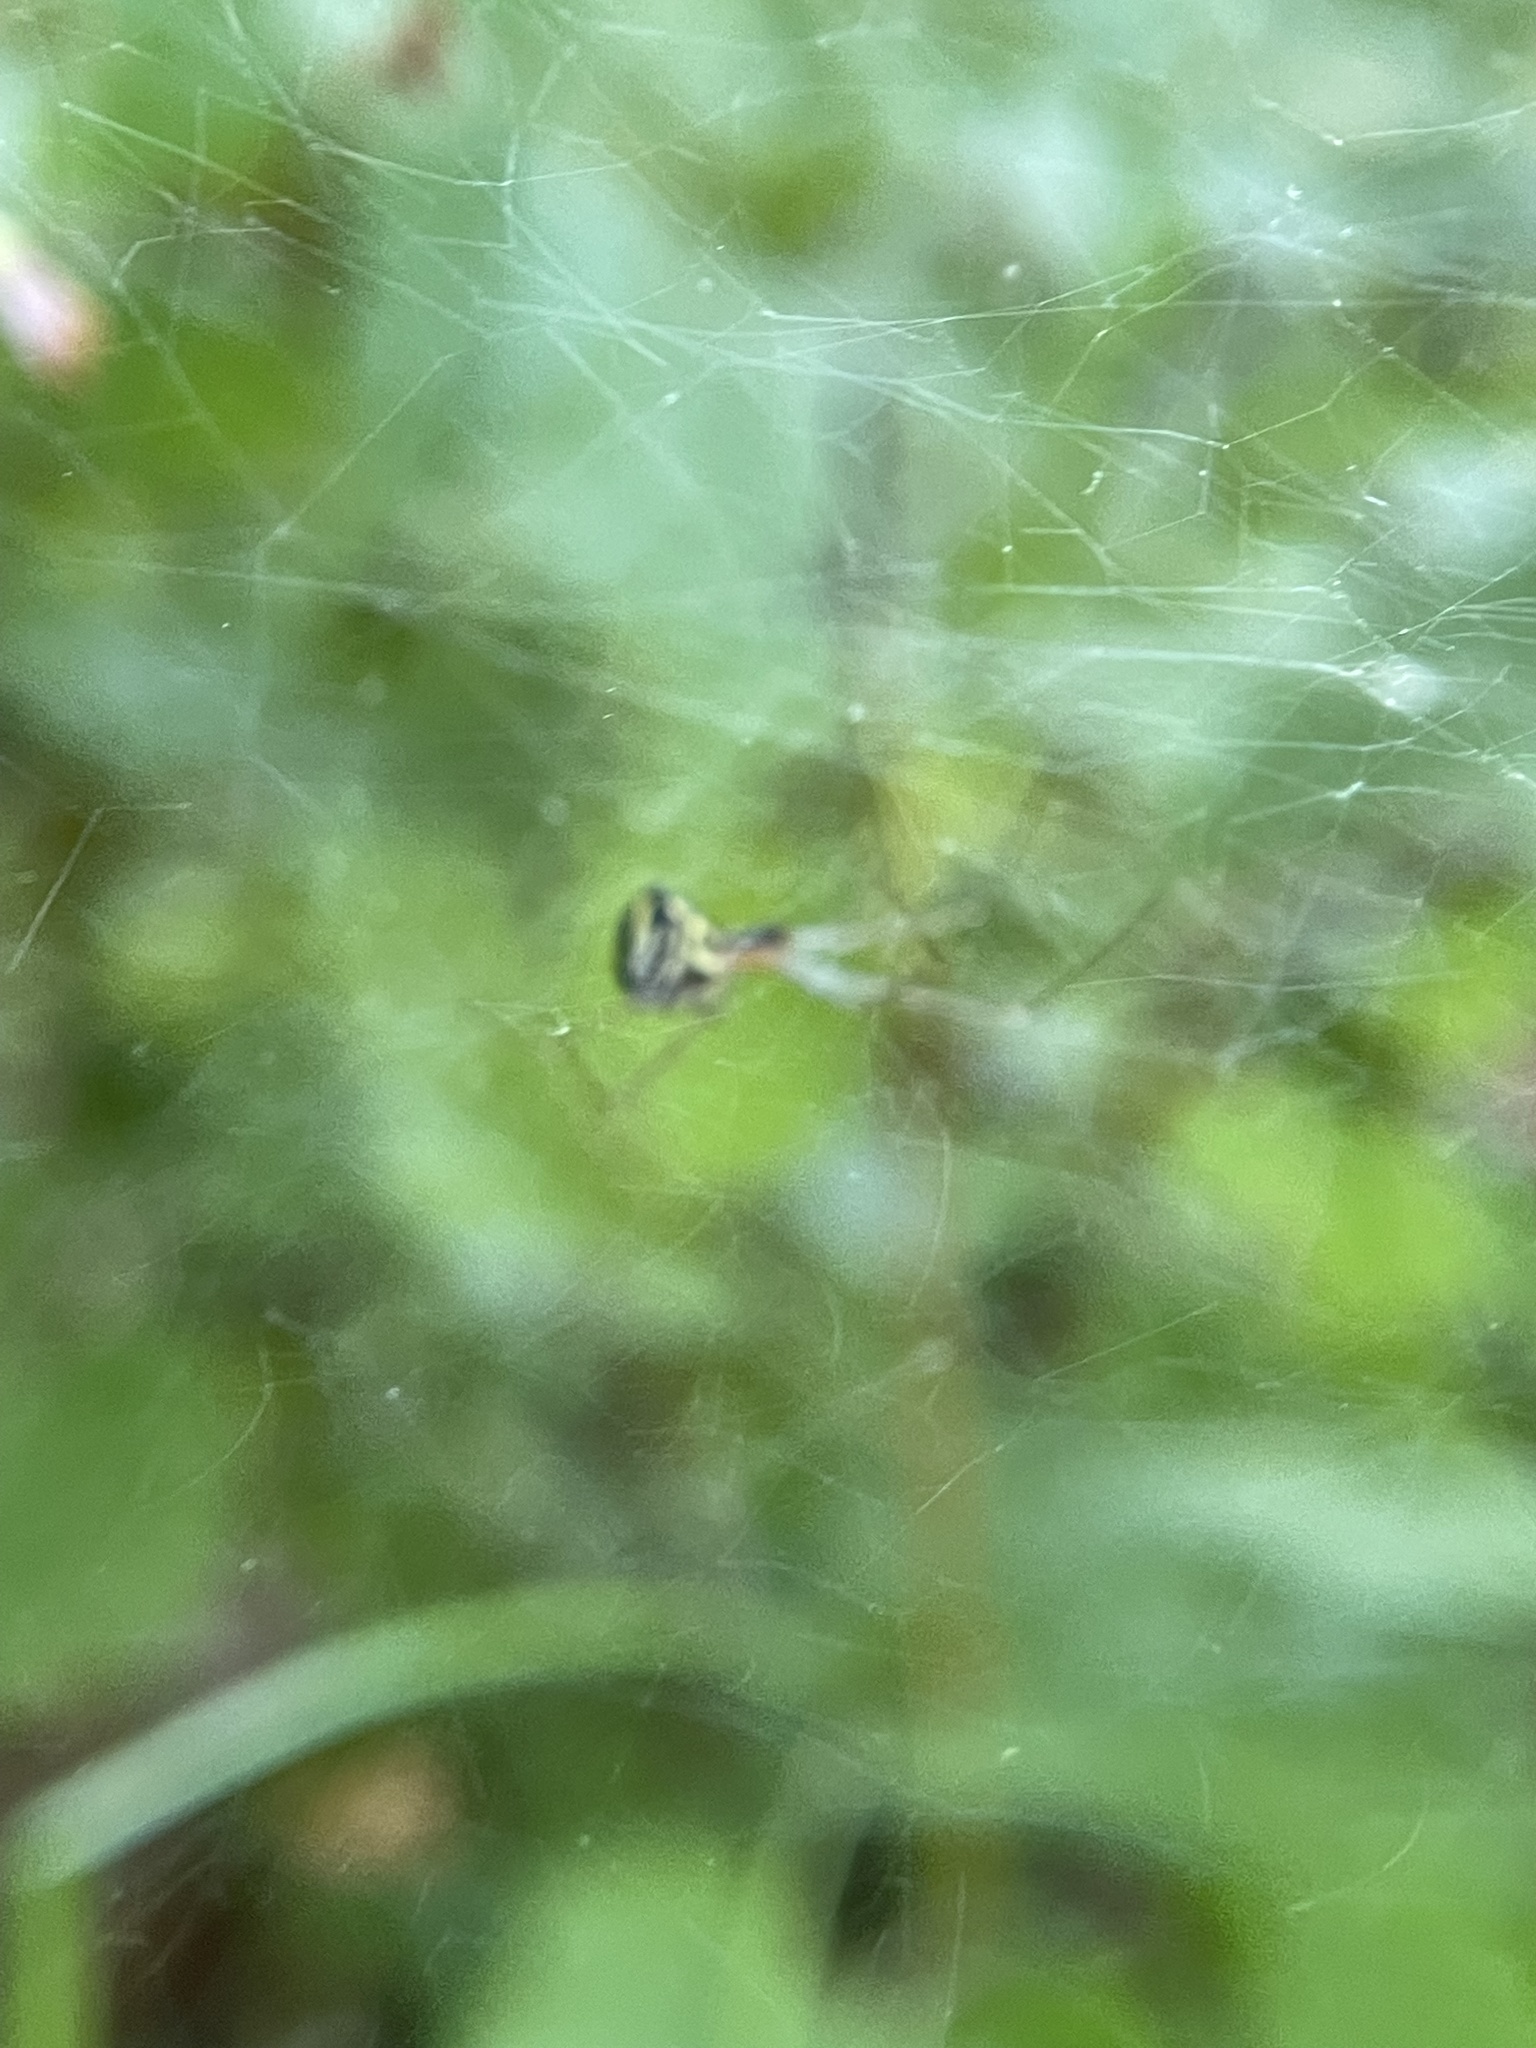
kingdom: Animalia
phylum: Arthropoda
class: Arachnida
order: Araneae
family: Linyphiidae
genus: Neriene
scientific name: Neriene radiata
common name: Filmy dome spider
